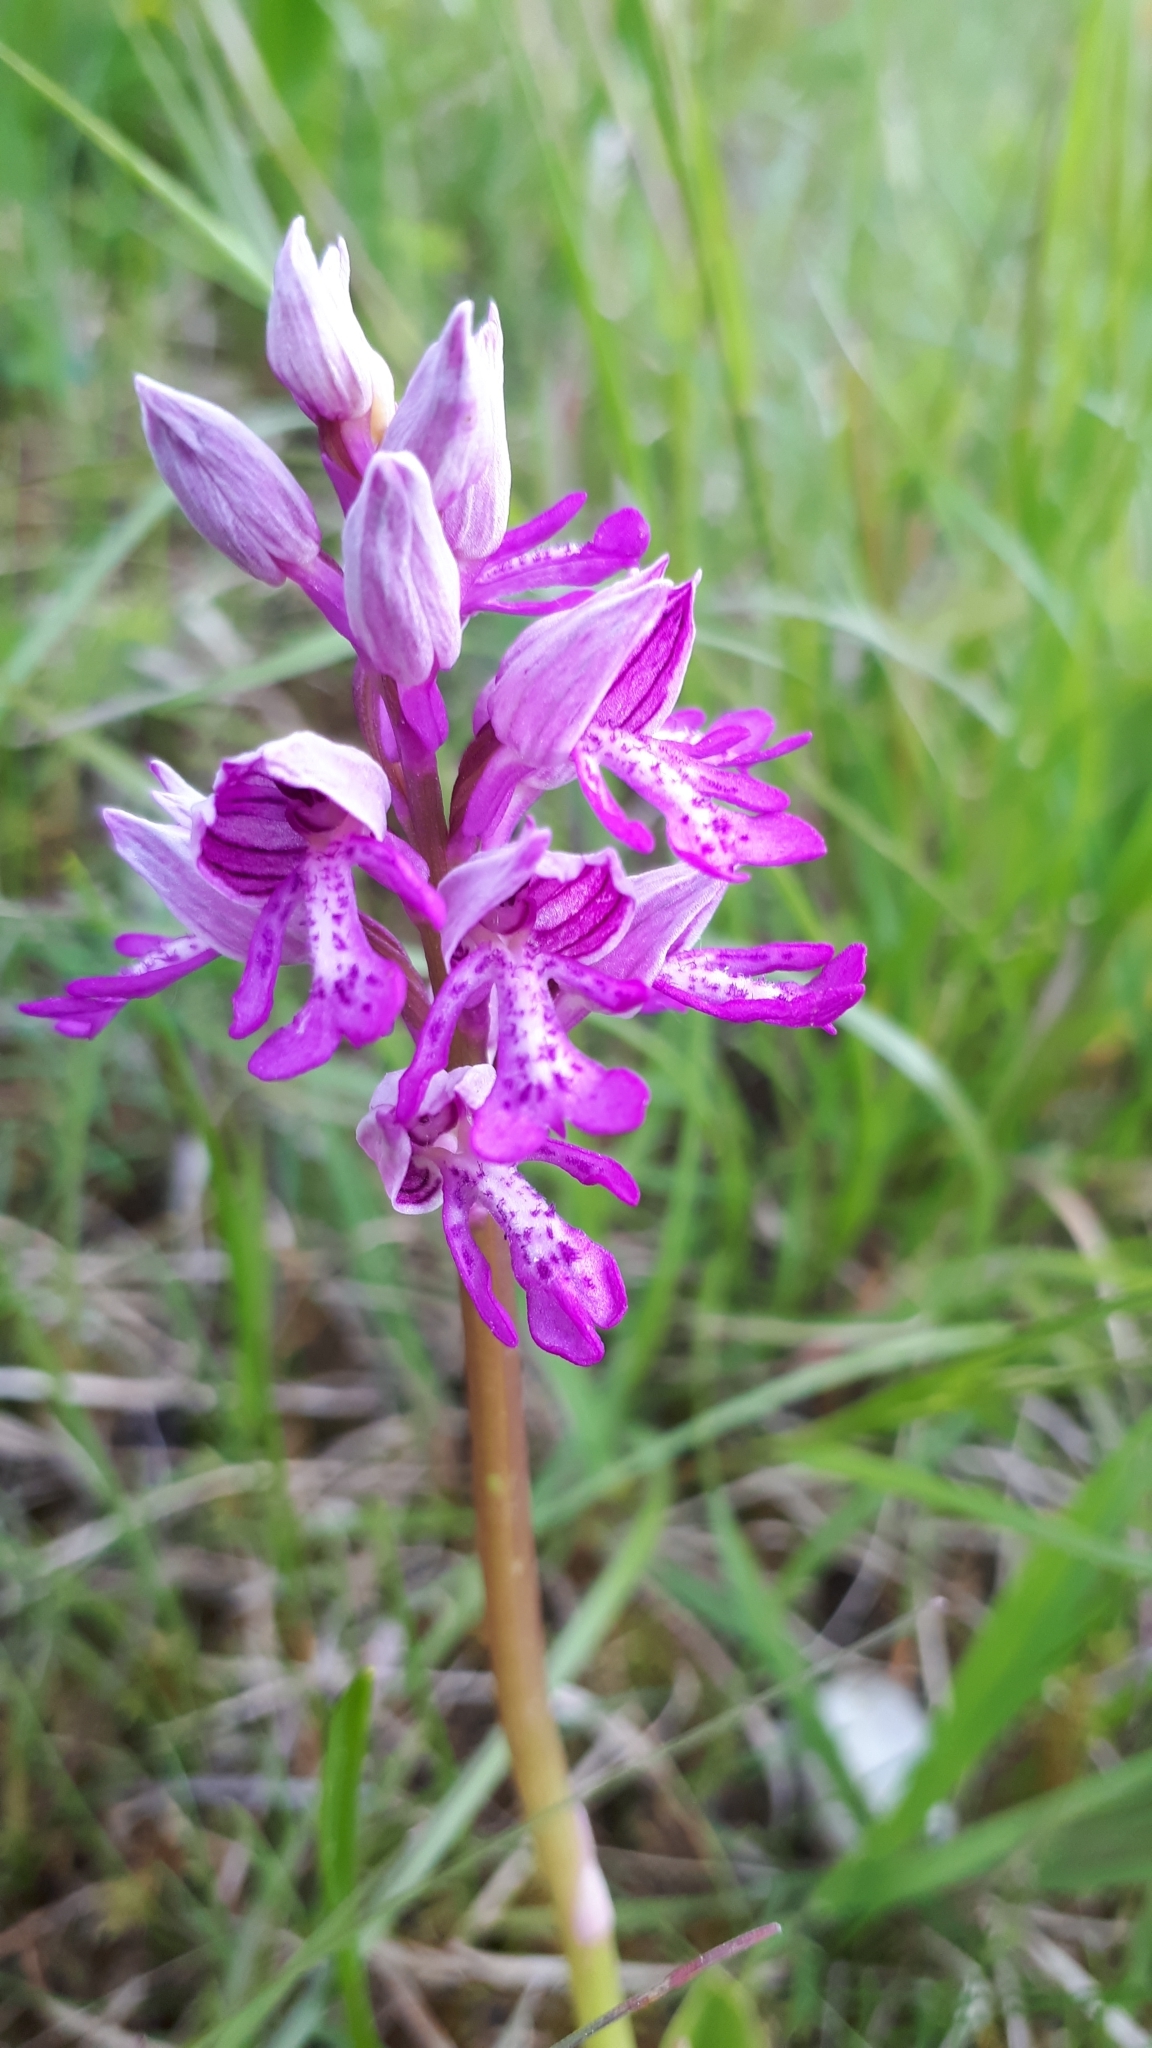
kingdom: Plantae
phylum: Tracheophyta
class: Liliopsida
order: Asparagales
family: Orchidaceae
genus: Orchis
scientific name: Orchis militaris
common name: Military orchid
